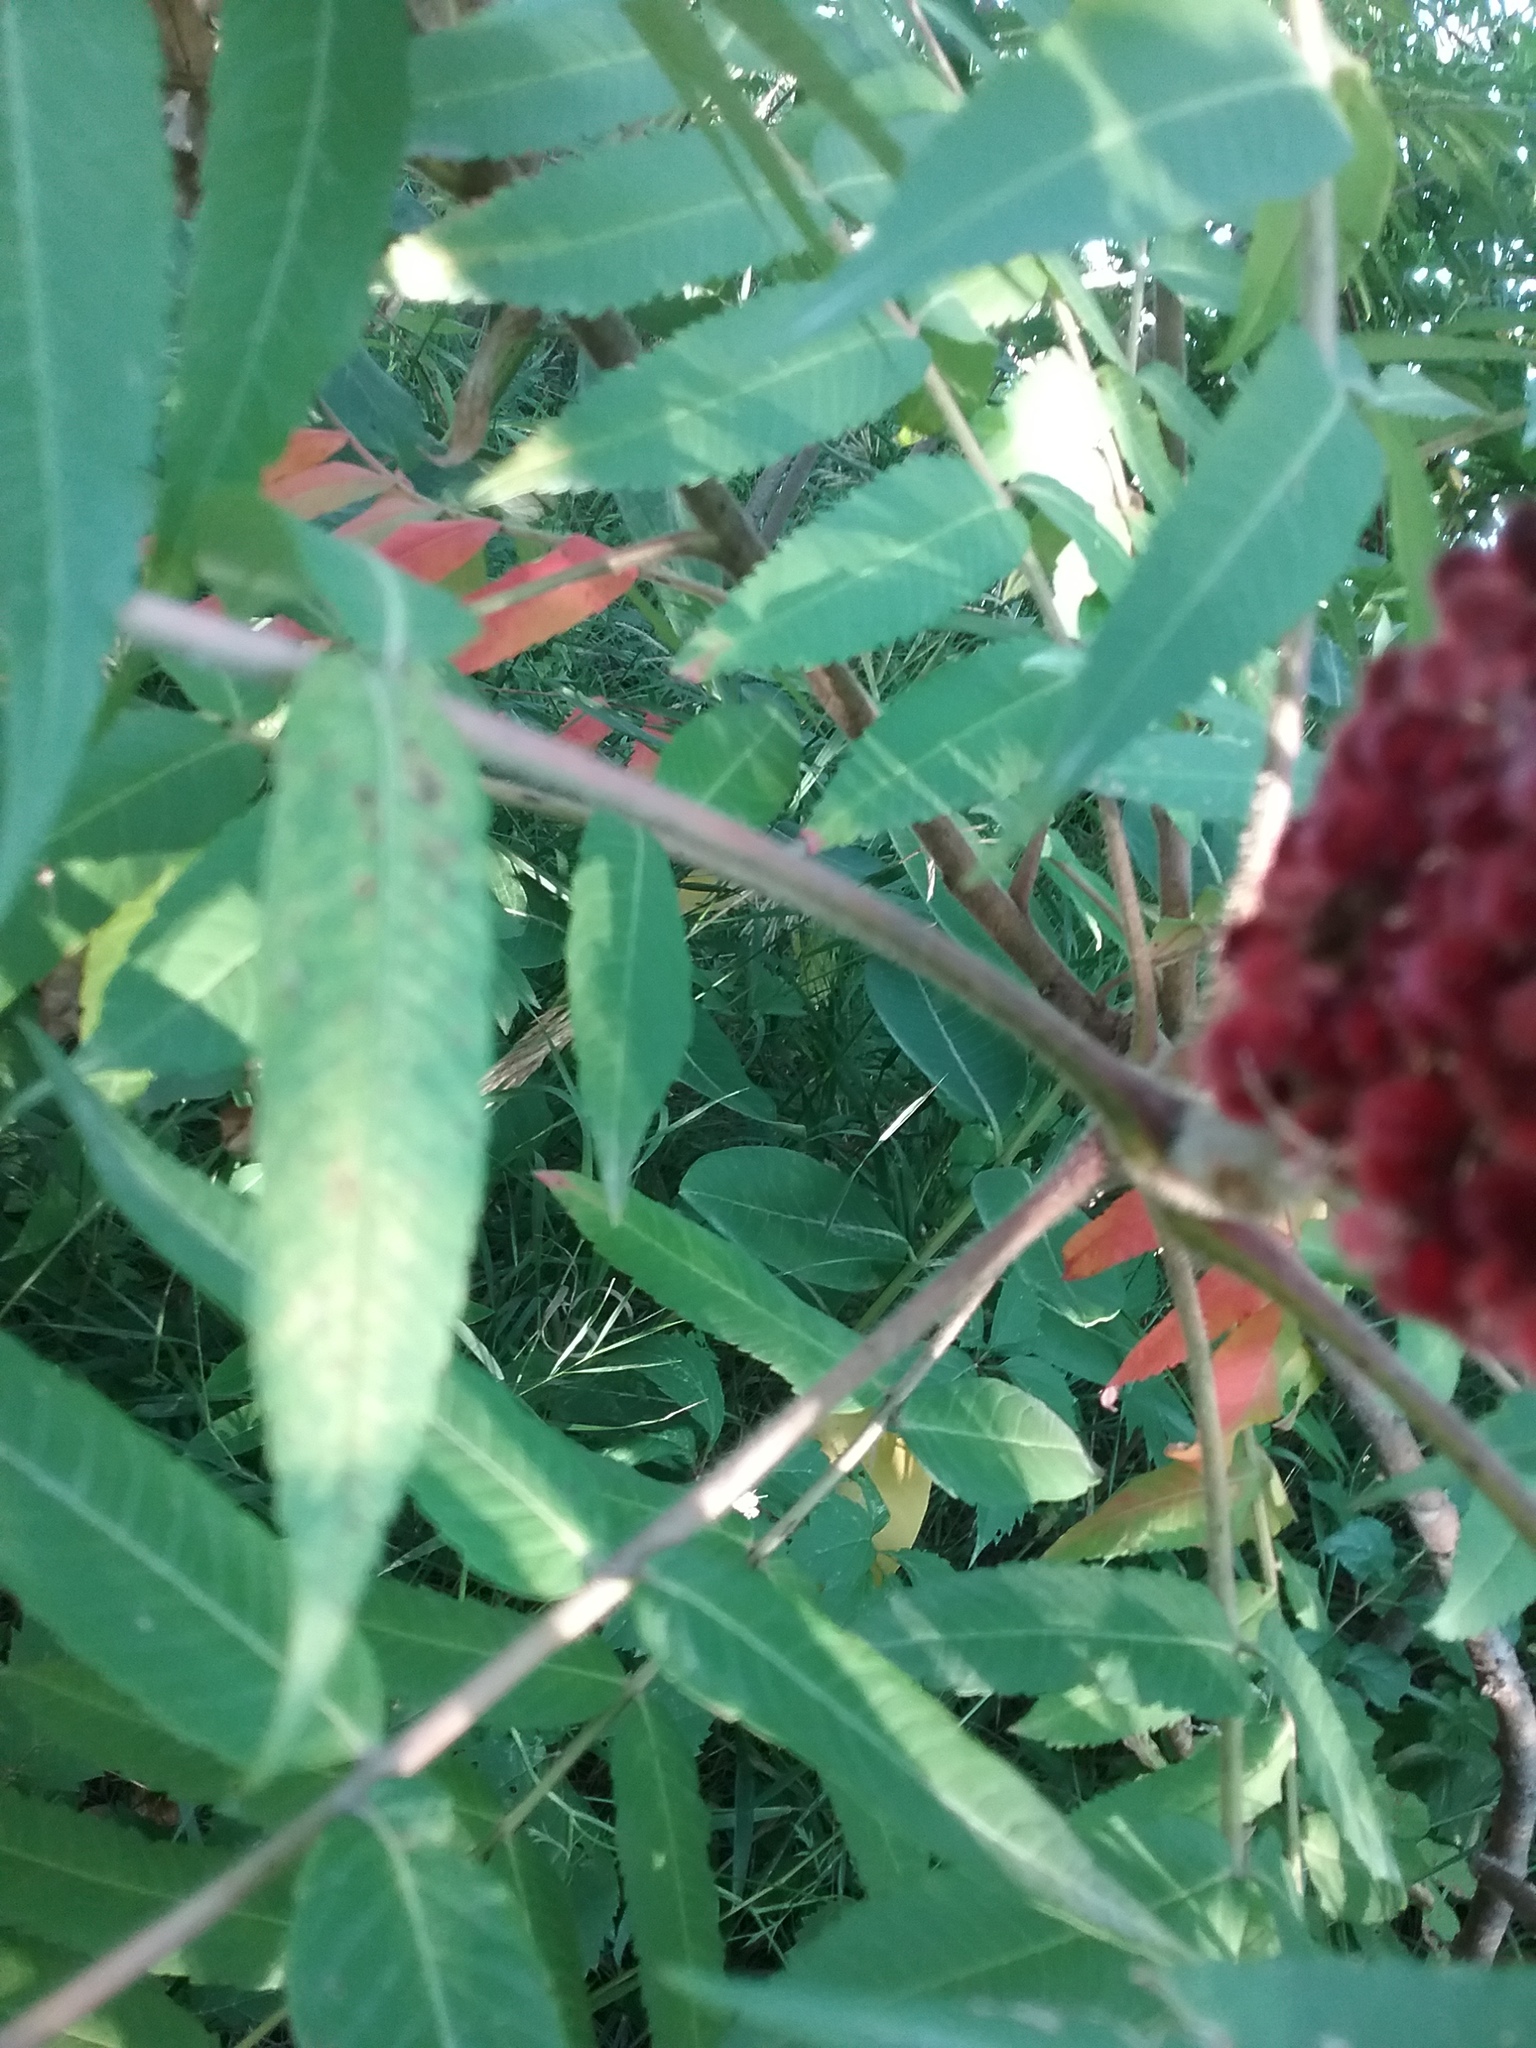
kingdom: Plantae
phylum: Tracheophyta
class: Magnoliopsida
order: Sapindales
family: Anacardiaceae
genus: Rhus
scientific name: Rhus typhina
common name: Staghorn sumac
